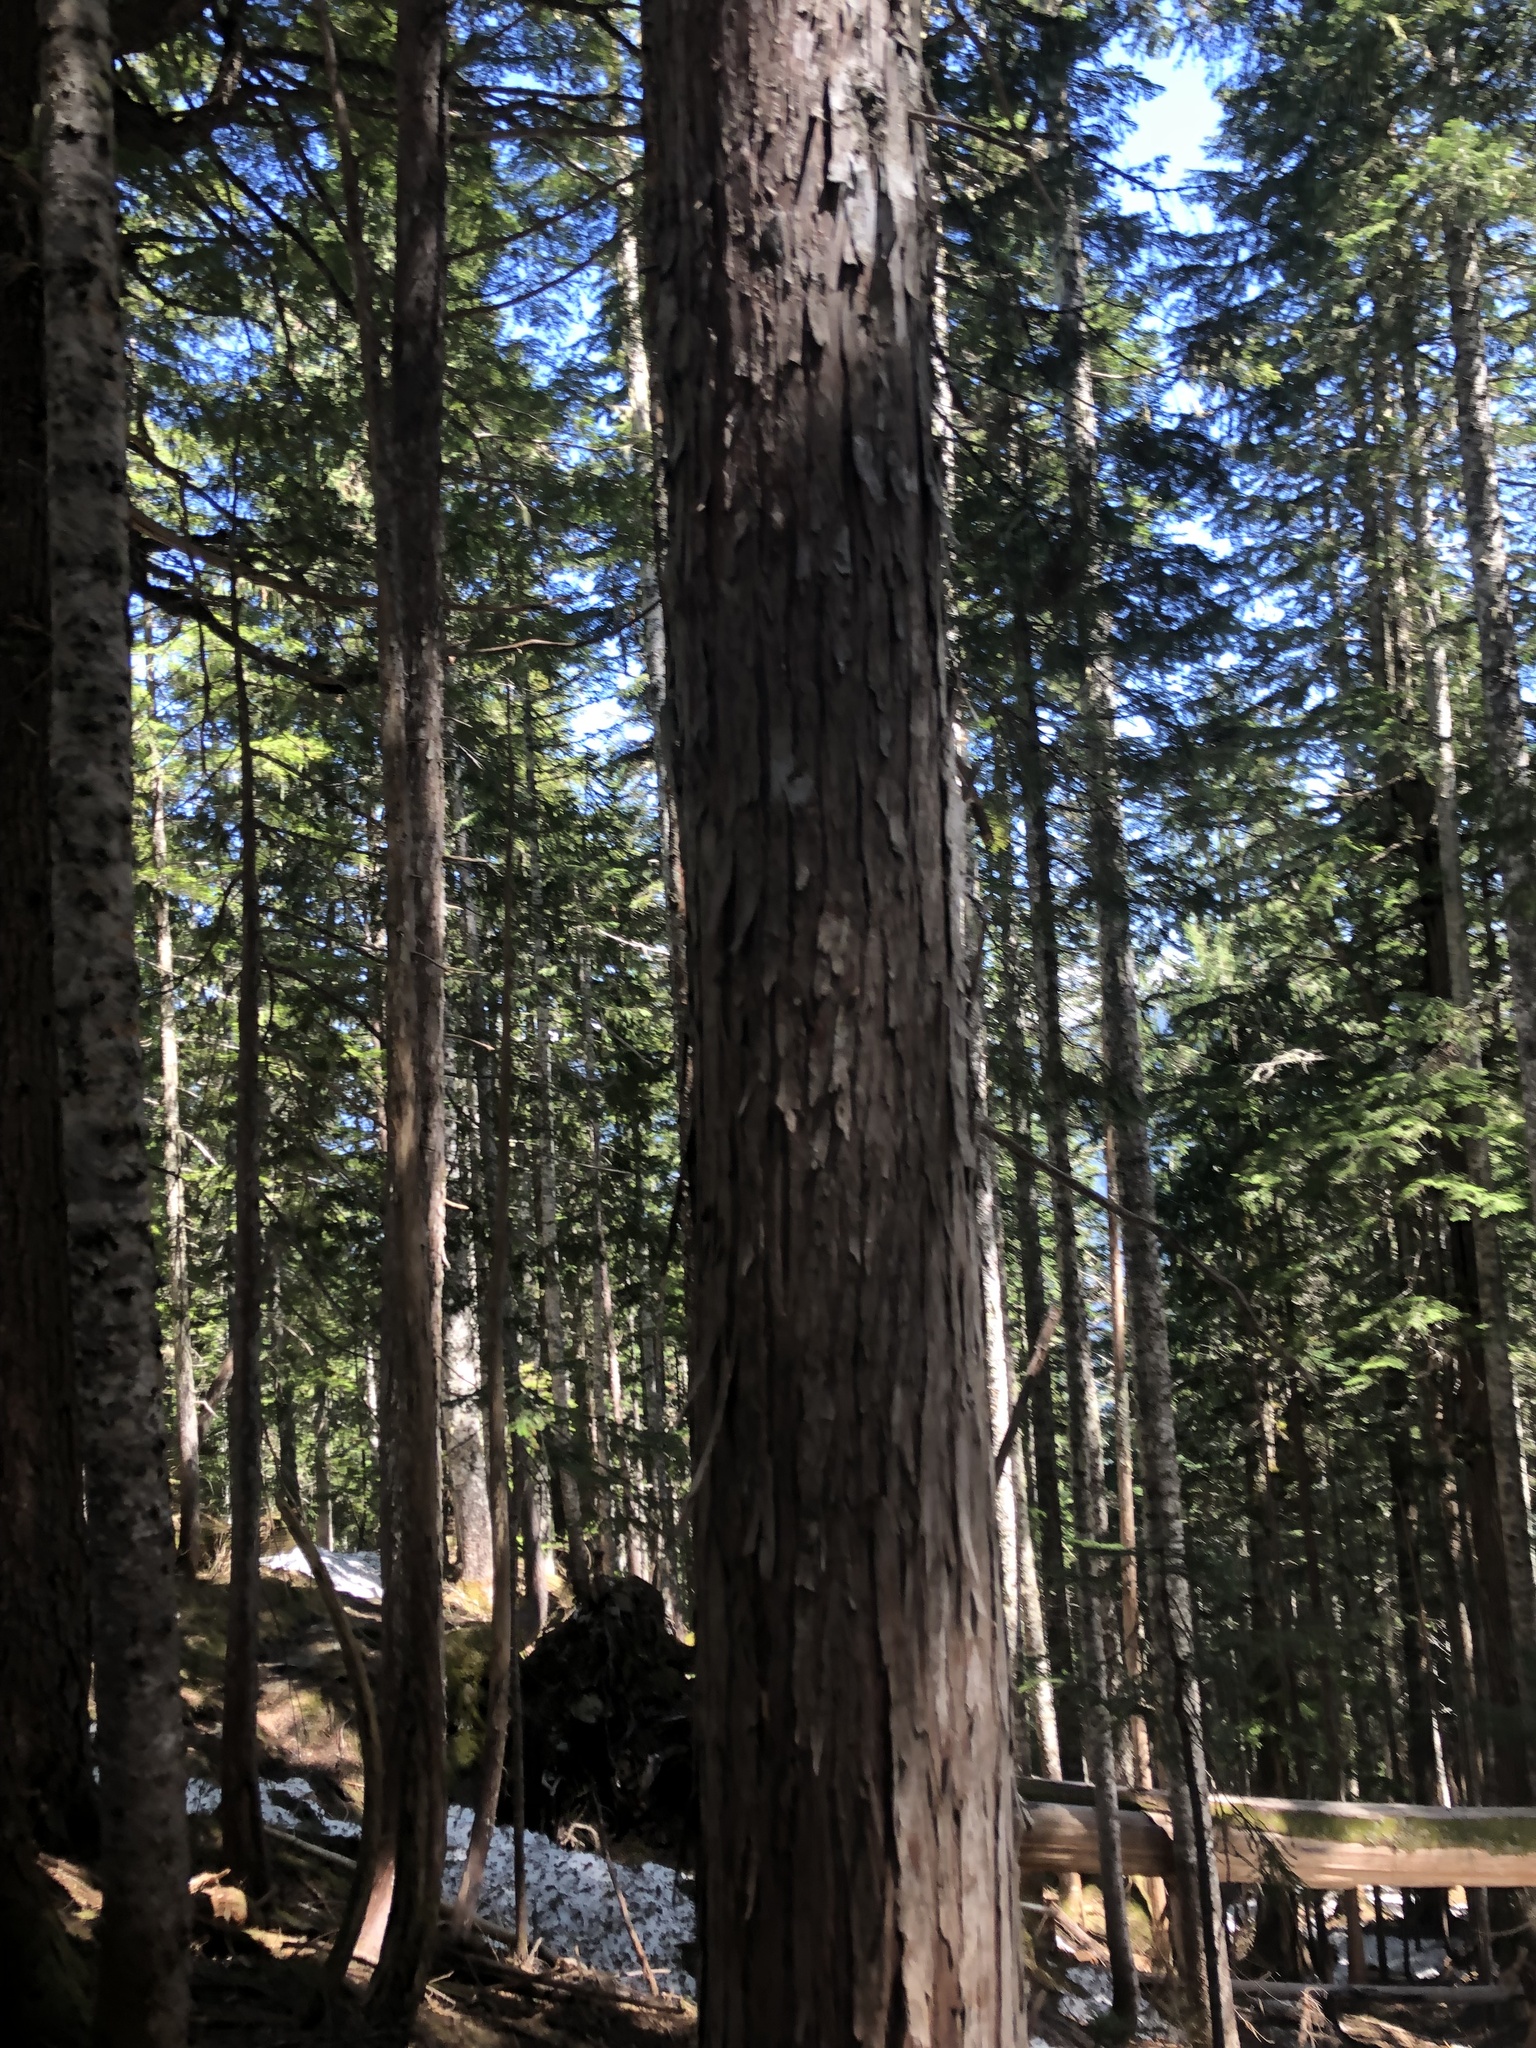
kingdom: Plantae
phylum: Tracheophyta
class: Pinopsida
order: Pinales
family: Cupressaceae
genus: Xanthocyparis
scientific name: Xanthocyparis nootkatensis
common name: Nootka cypress
